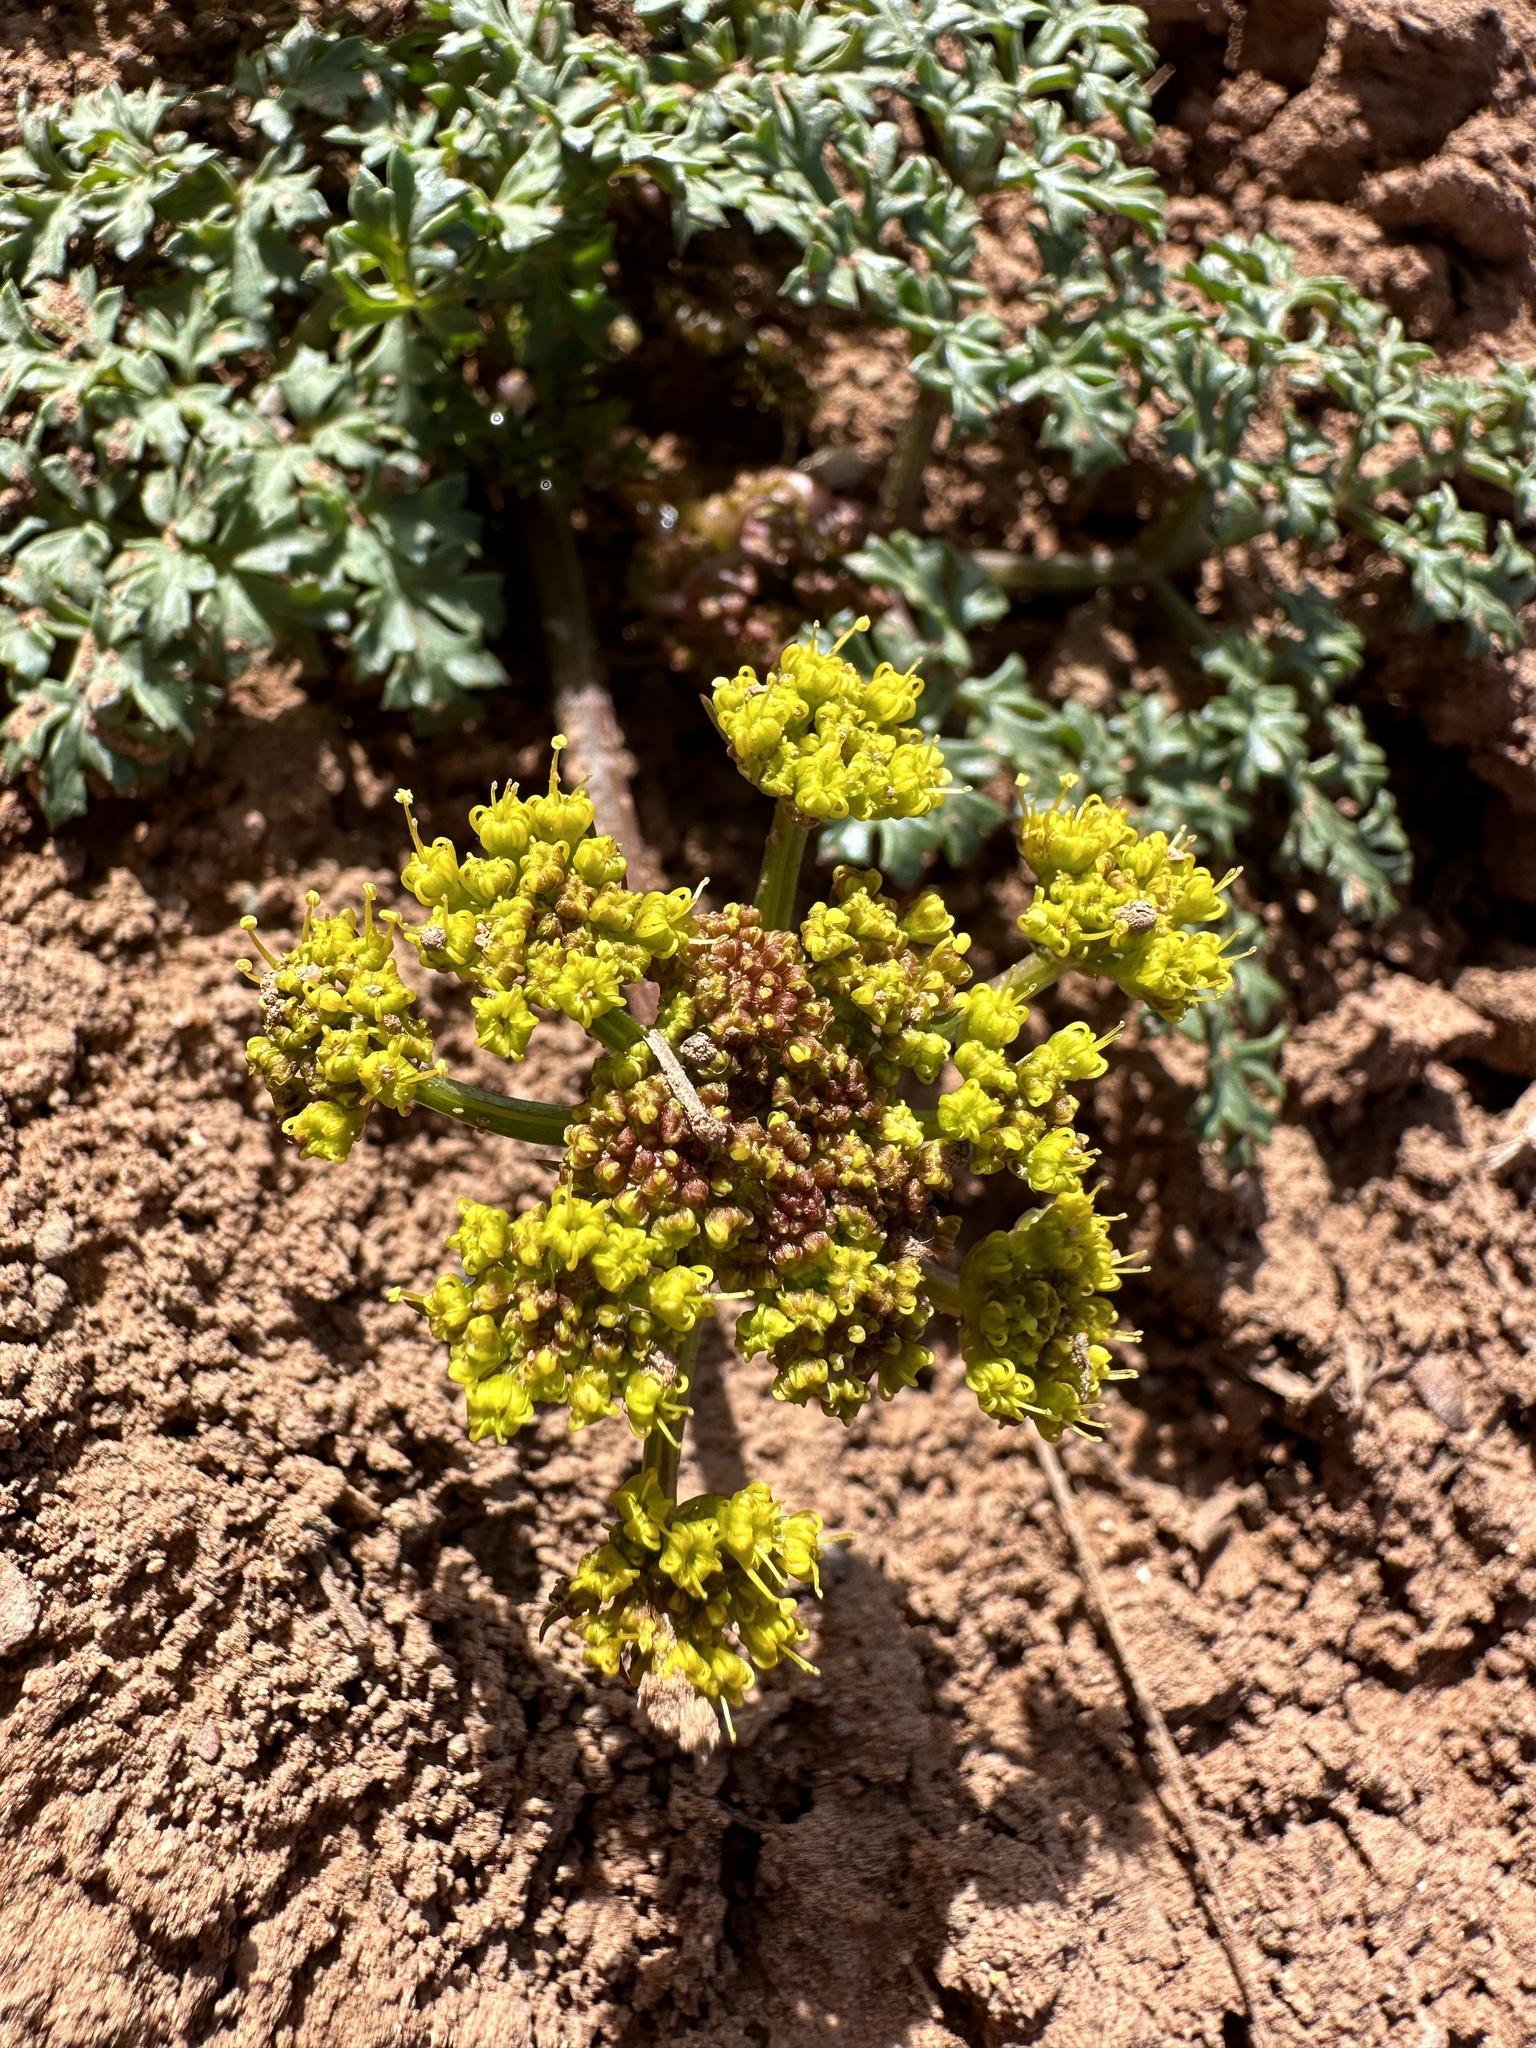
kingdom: Plantae
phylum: Tracheophyta
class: Magnoliopsida
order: Apiales
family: Apiaceae
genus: Aulospermum
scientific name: Aulospermum purpureum
